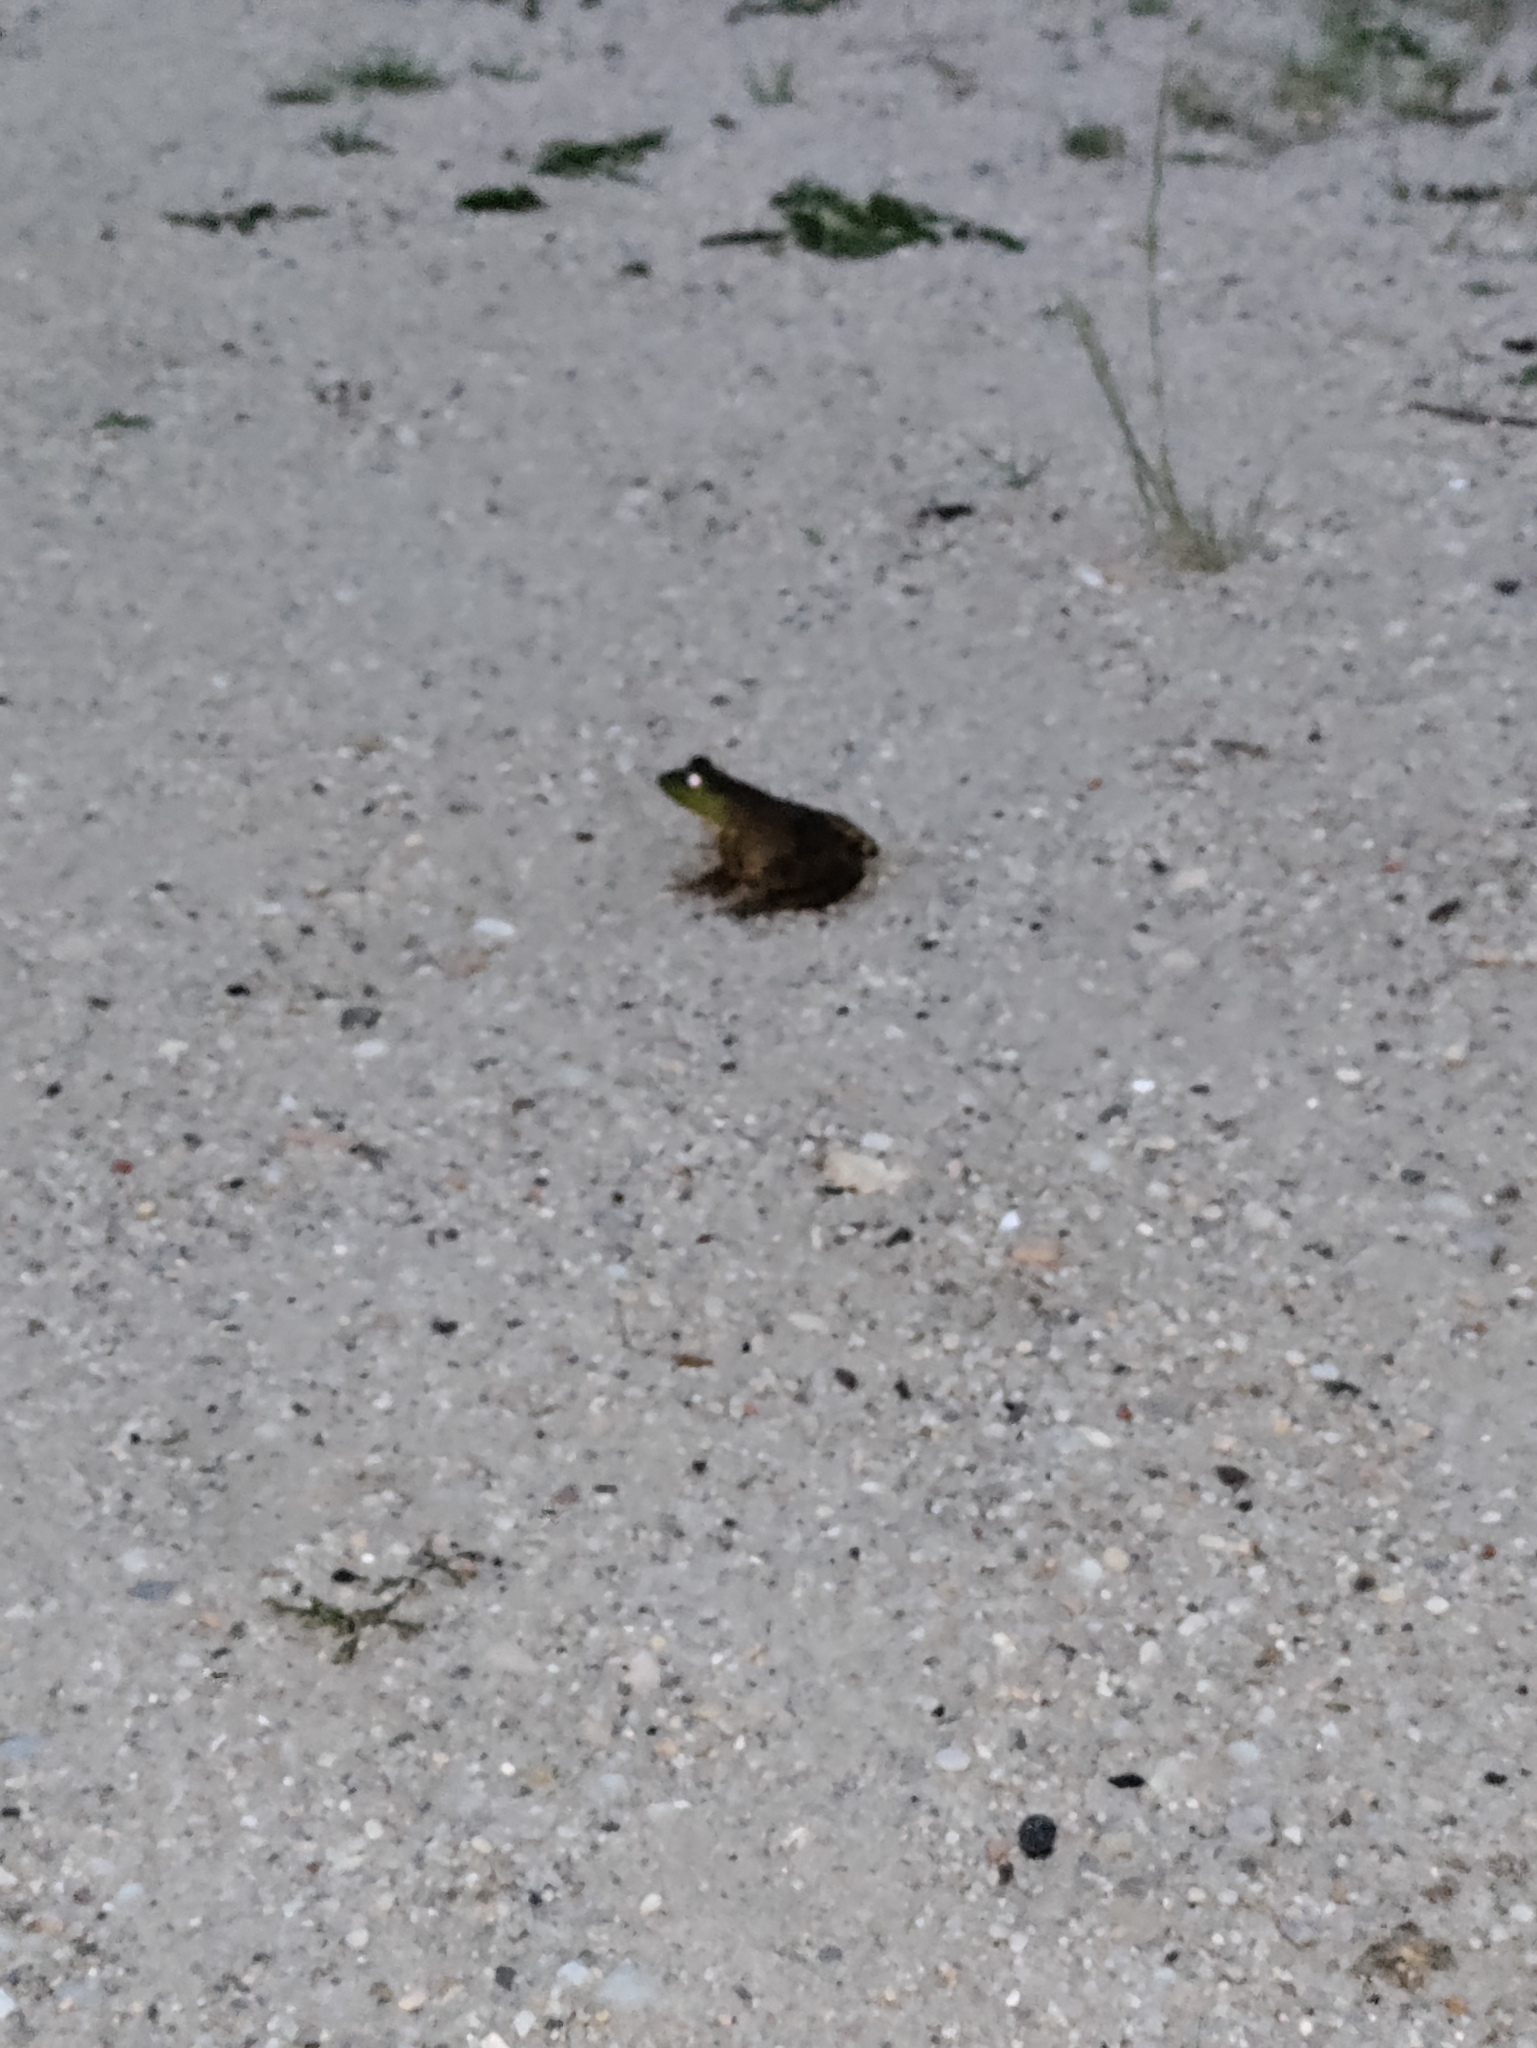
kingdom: Animalia
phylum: Chordata
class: Amphibia
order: Anura
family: Ranidae
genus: Lithobates
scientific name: Lithobates catesbeianus
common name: American bullfrog
